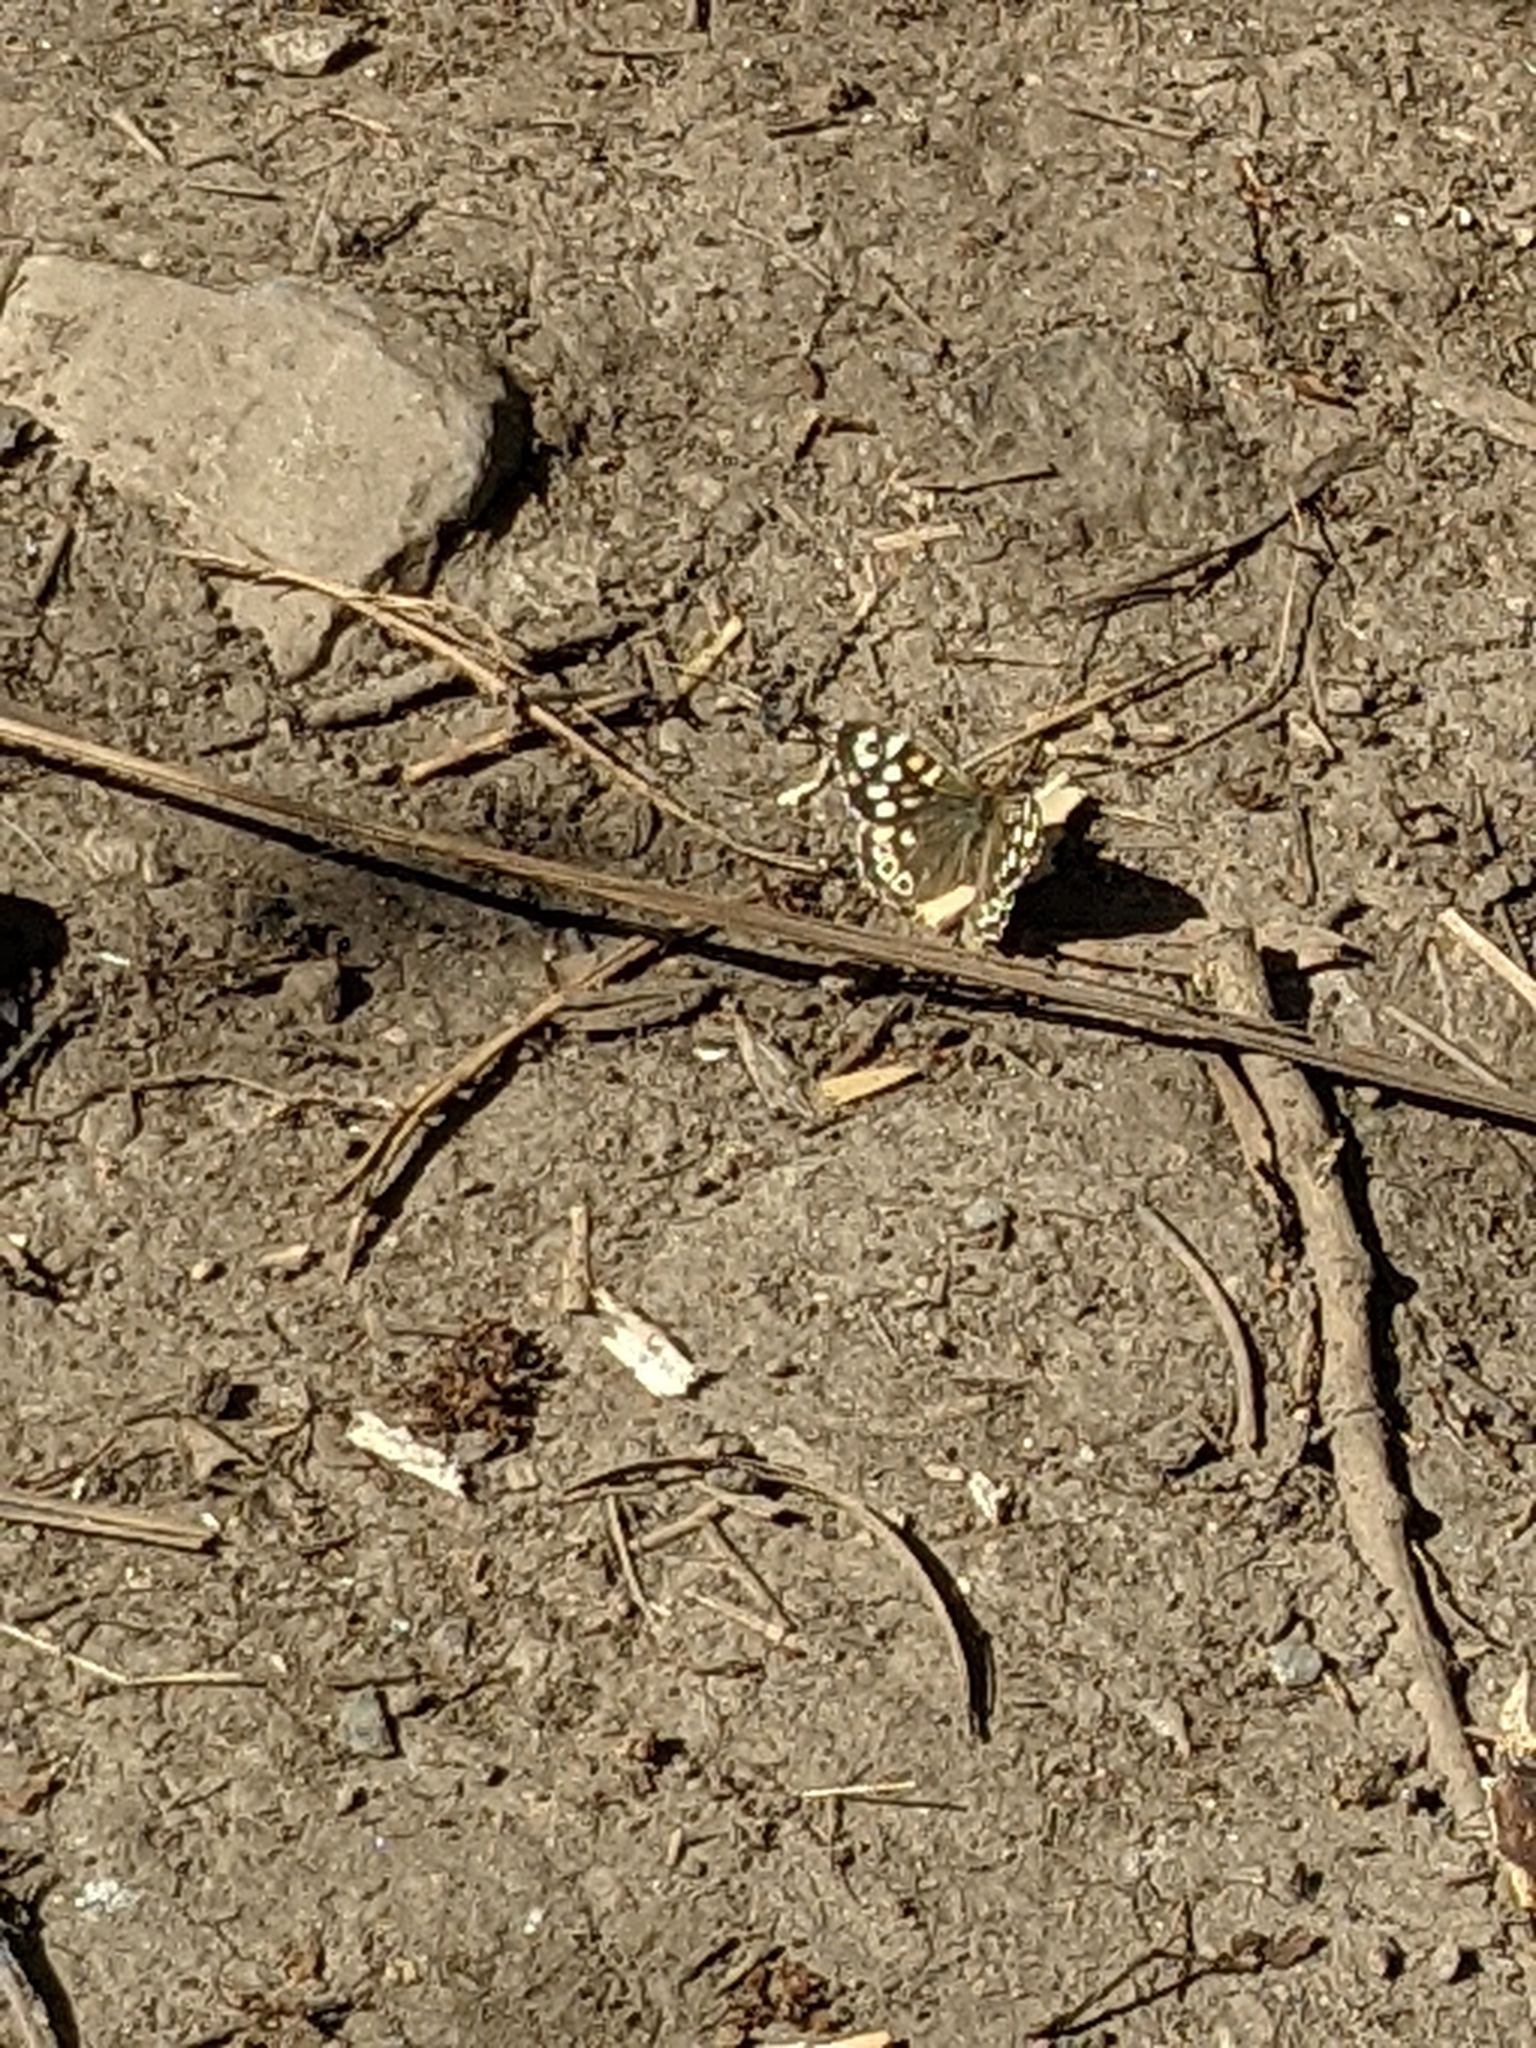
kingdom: Animalia
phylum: Arthropoda
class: Insecta
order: Lepidoptera
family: Nymphalidae
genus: Pararge
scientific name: Pararge aegeria
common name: Speckled wood
